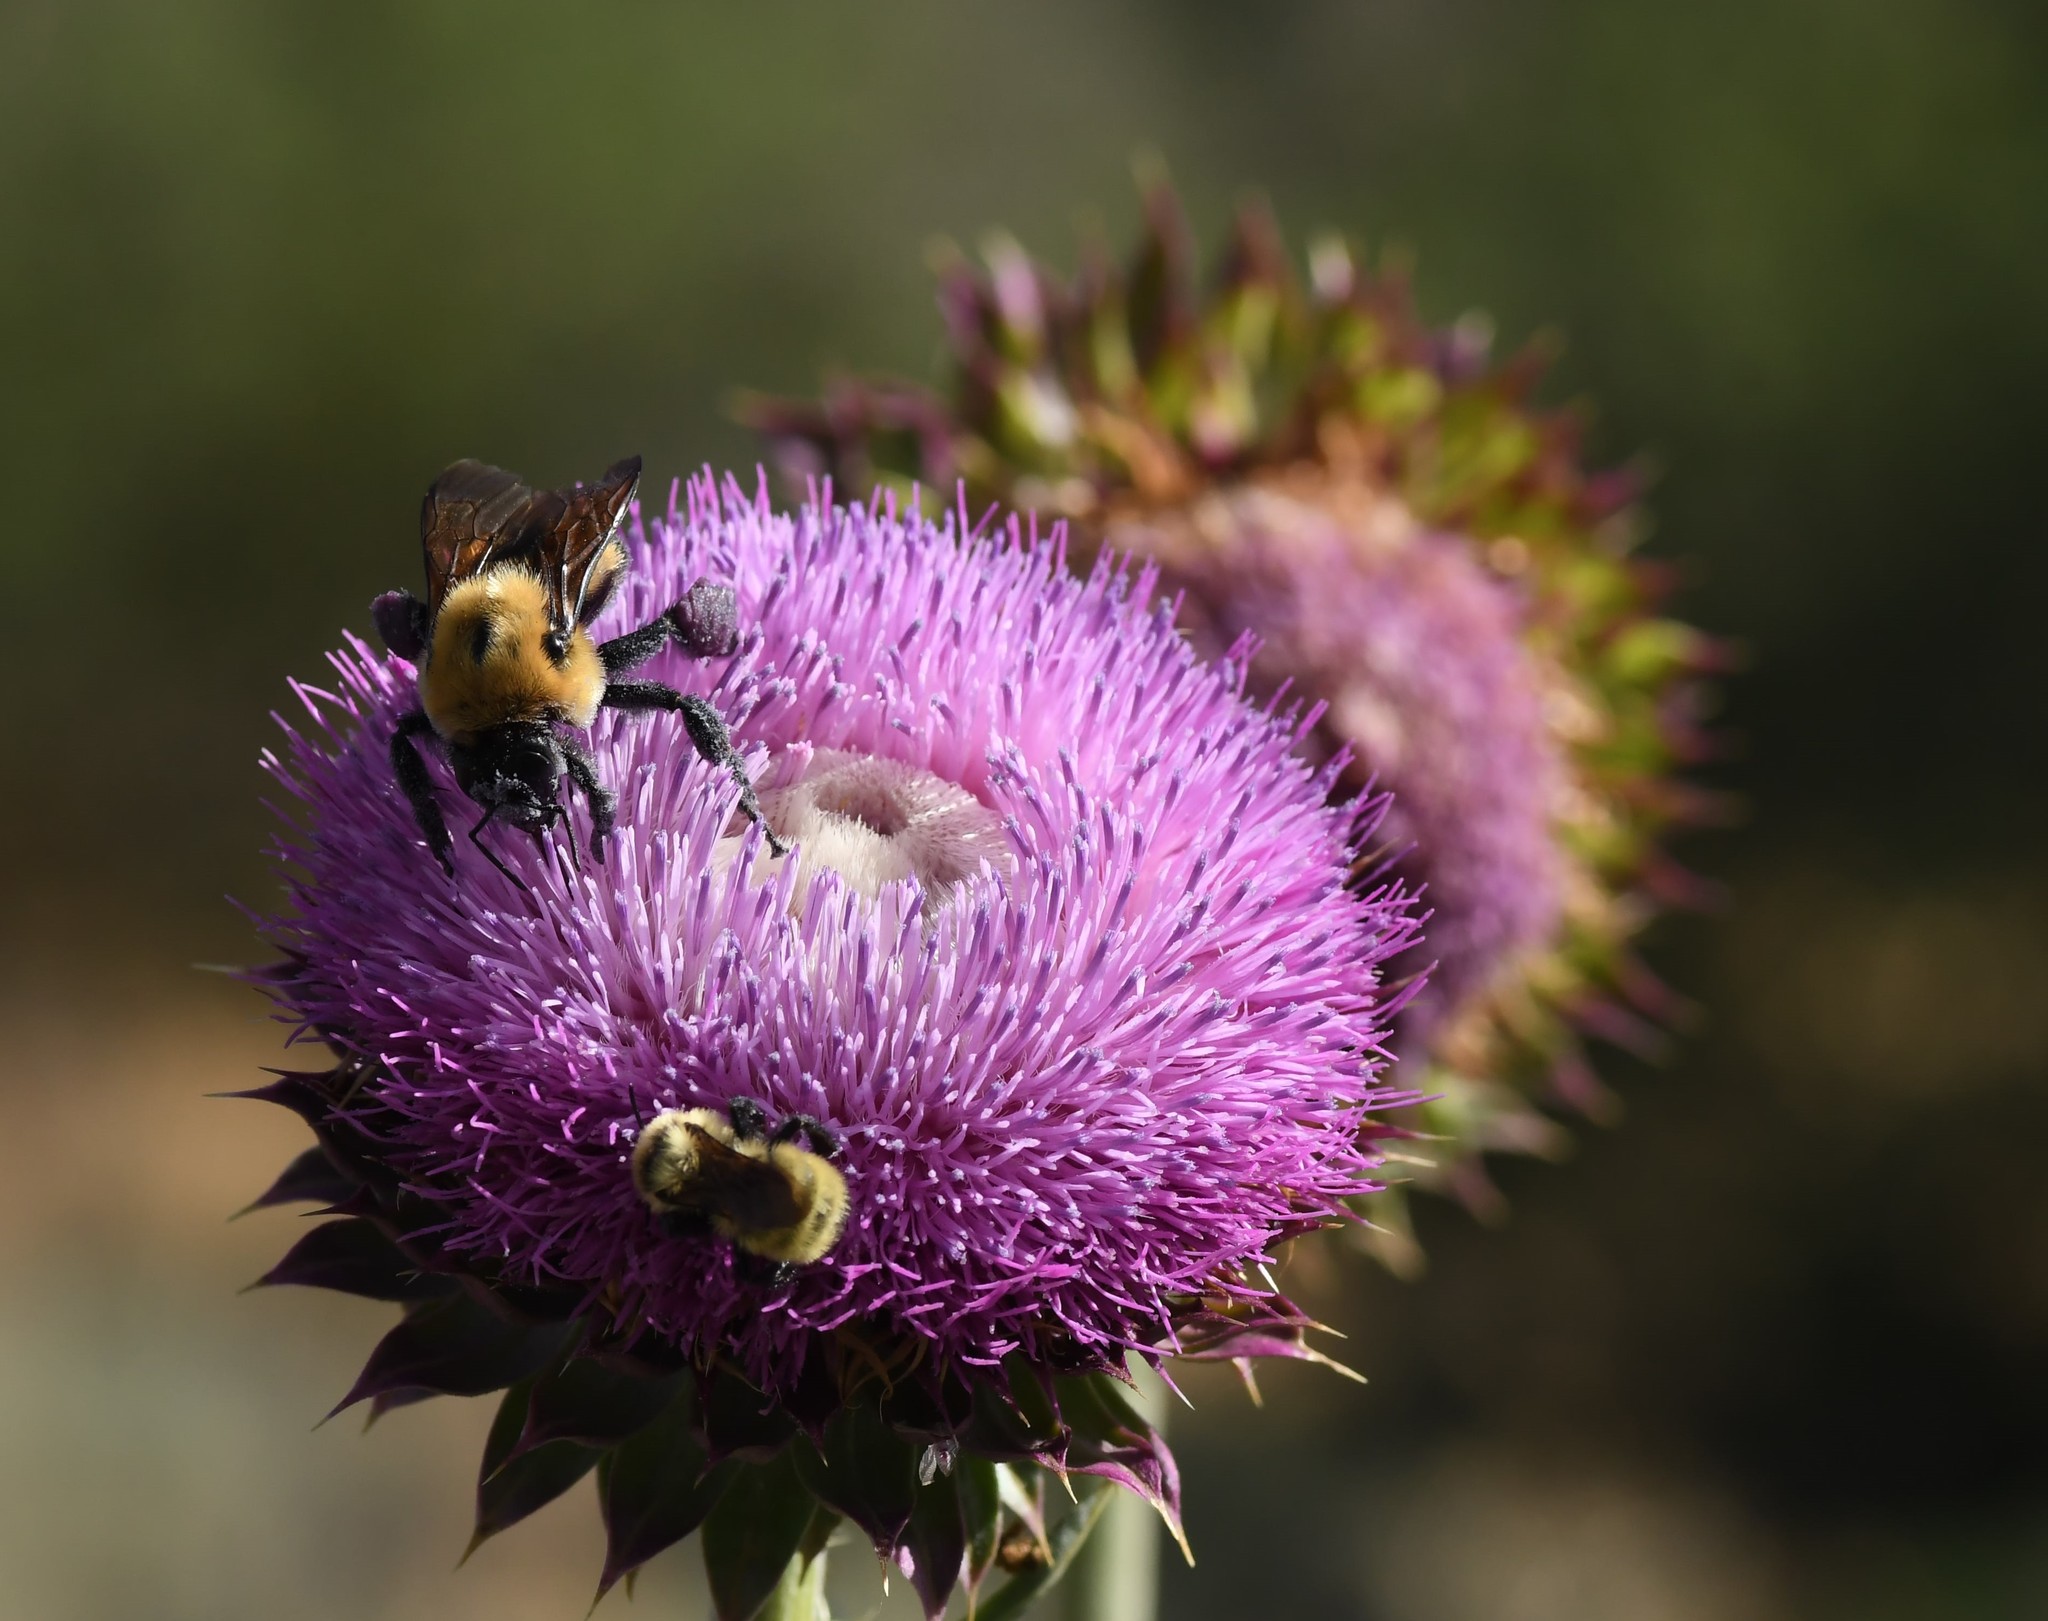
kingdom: Animalia
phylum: Arthropoda
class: Insecta
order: Hymenoptera
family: Apidae
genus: Bombus
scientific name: Bombus fervidus
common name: Yellow bumble bee
